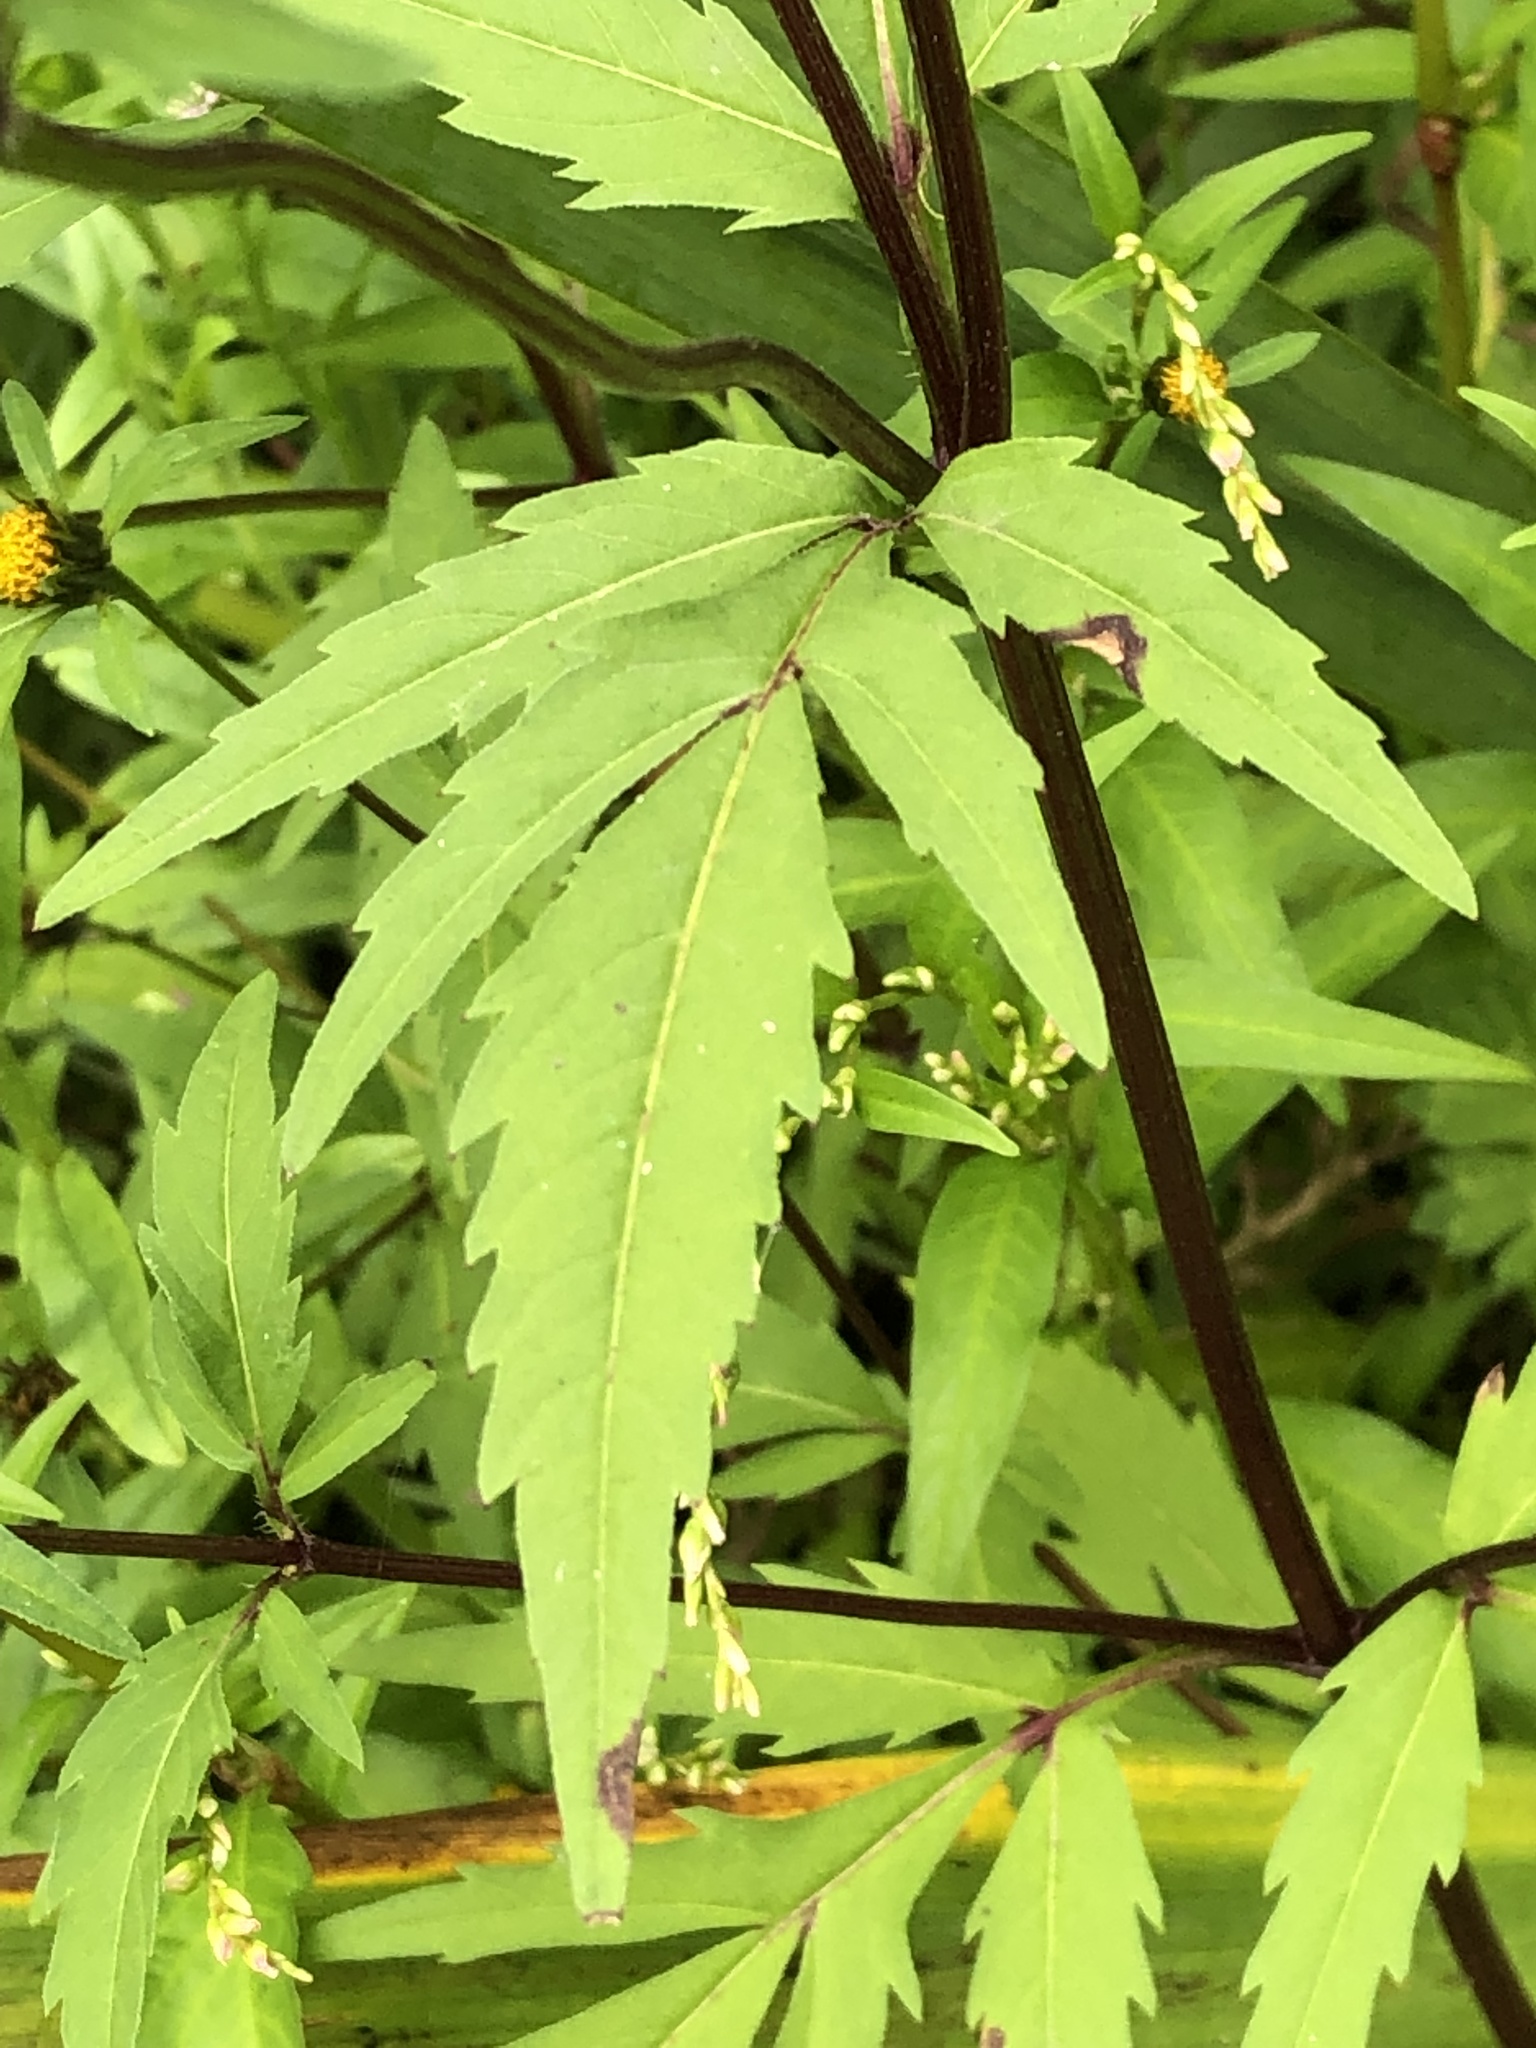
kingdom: Plantae
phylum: Tracheophyta
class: Magnoliopsida
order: Asterales
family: Asteraceae
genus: Bidens
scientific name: Bidens tripartita
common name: Trifid bur-marigold
